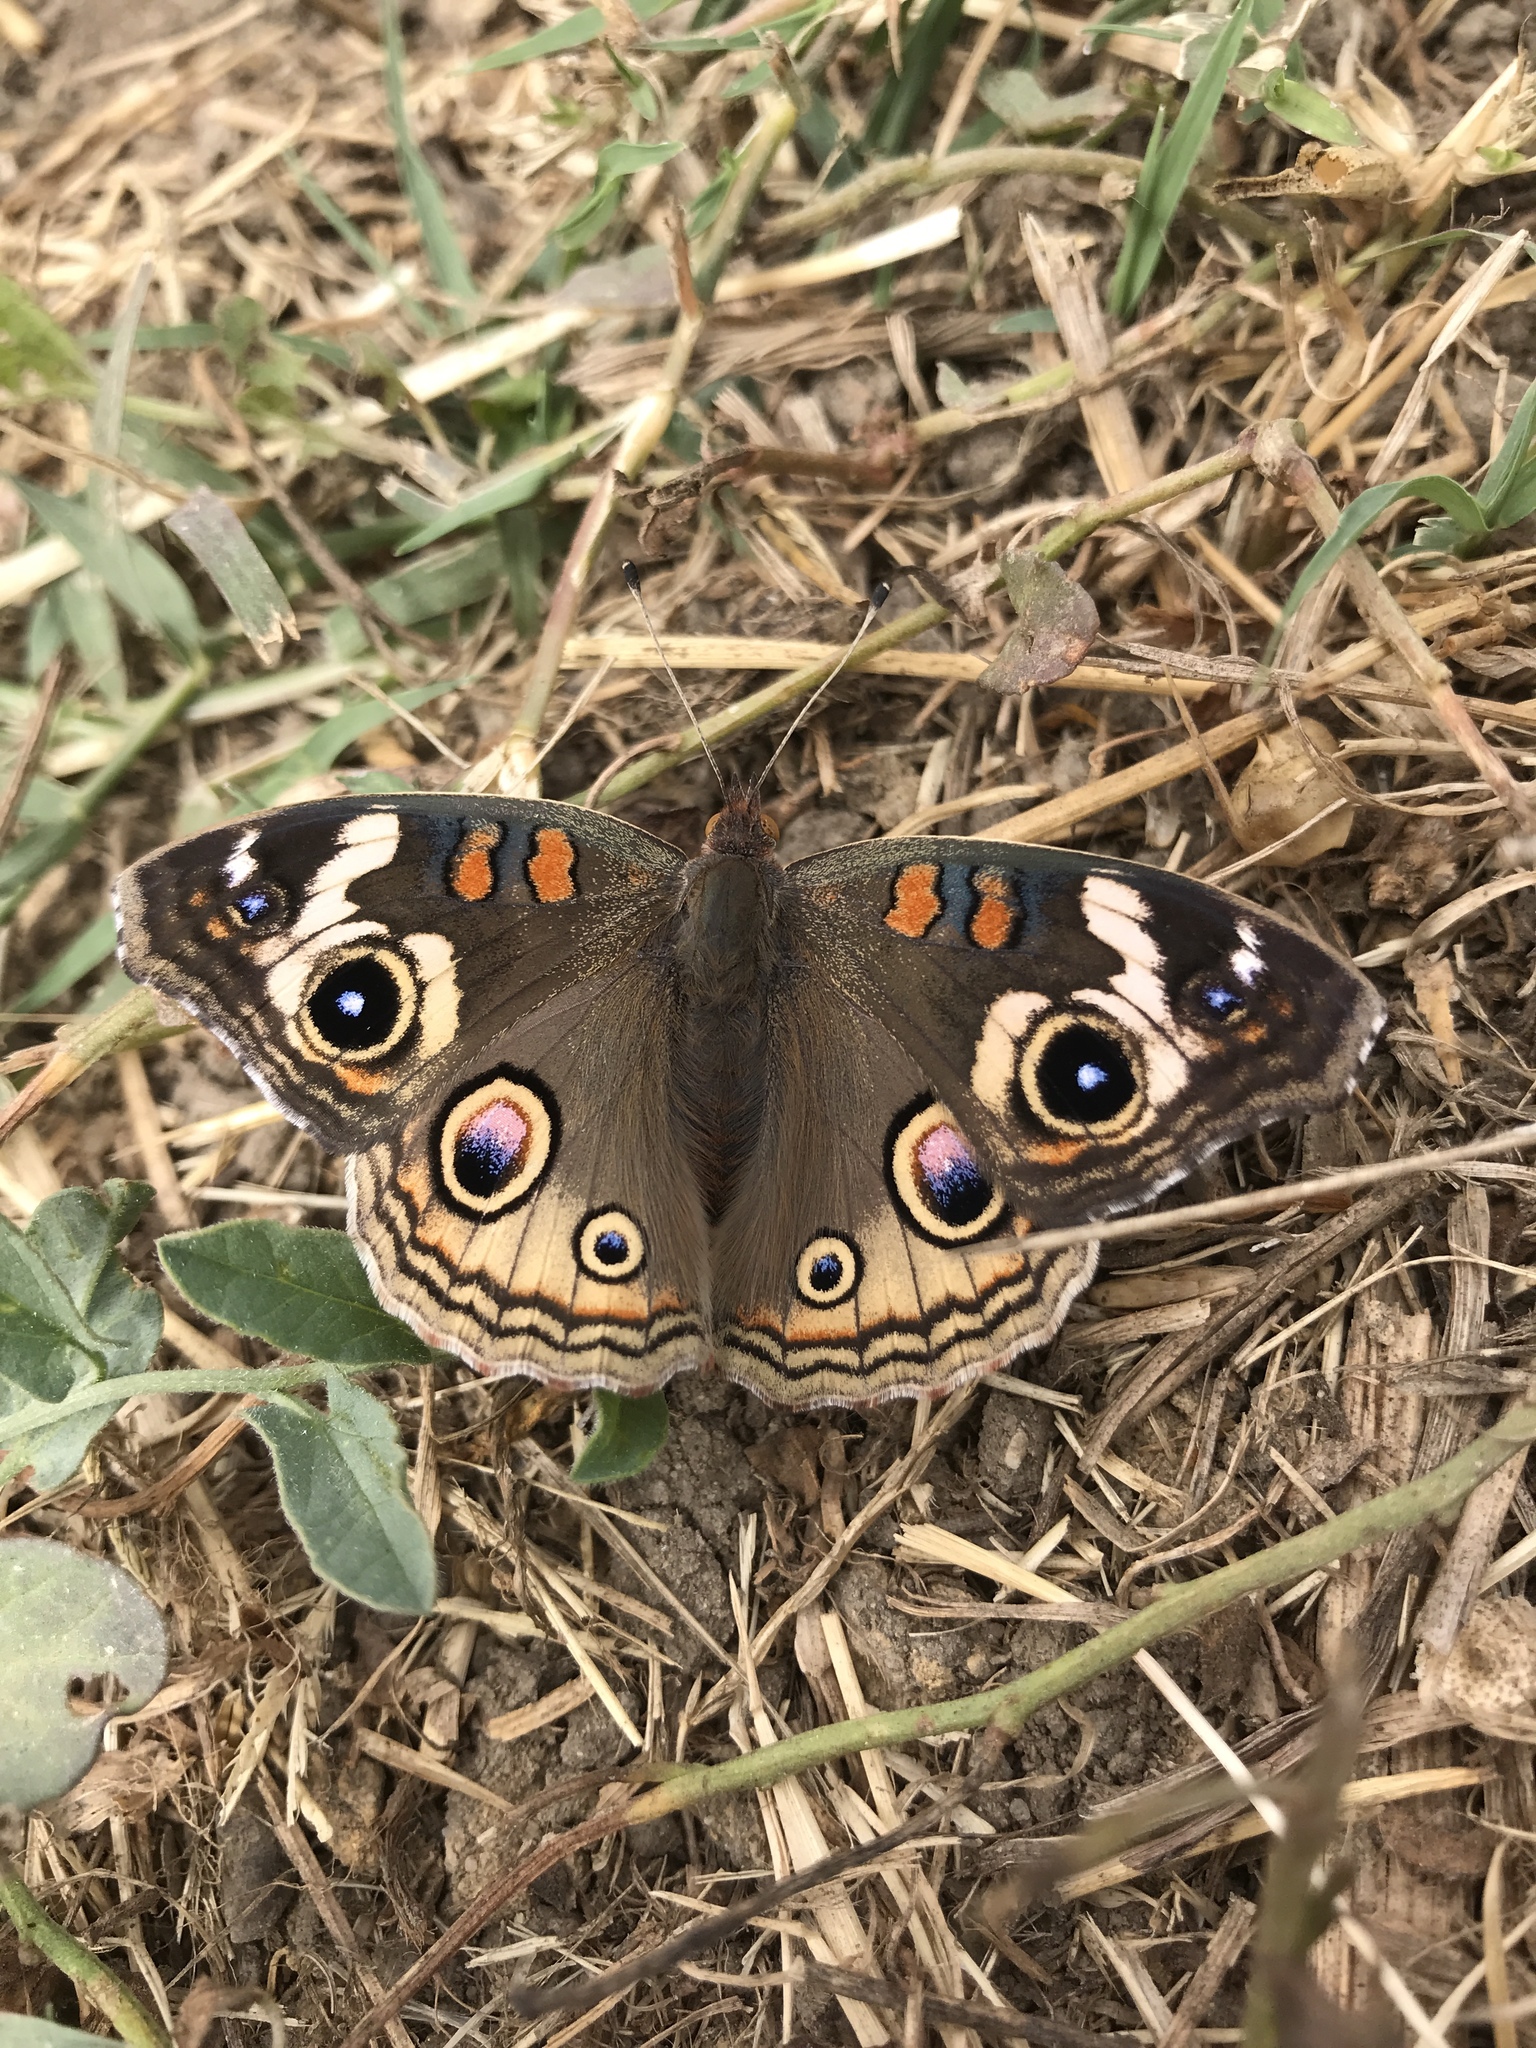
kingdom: Animalia
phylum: Arthropoda
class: Insecta
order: Lepidoptera
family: Nymphalidae
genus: Junonia
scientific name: Junonia grisea
